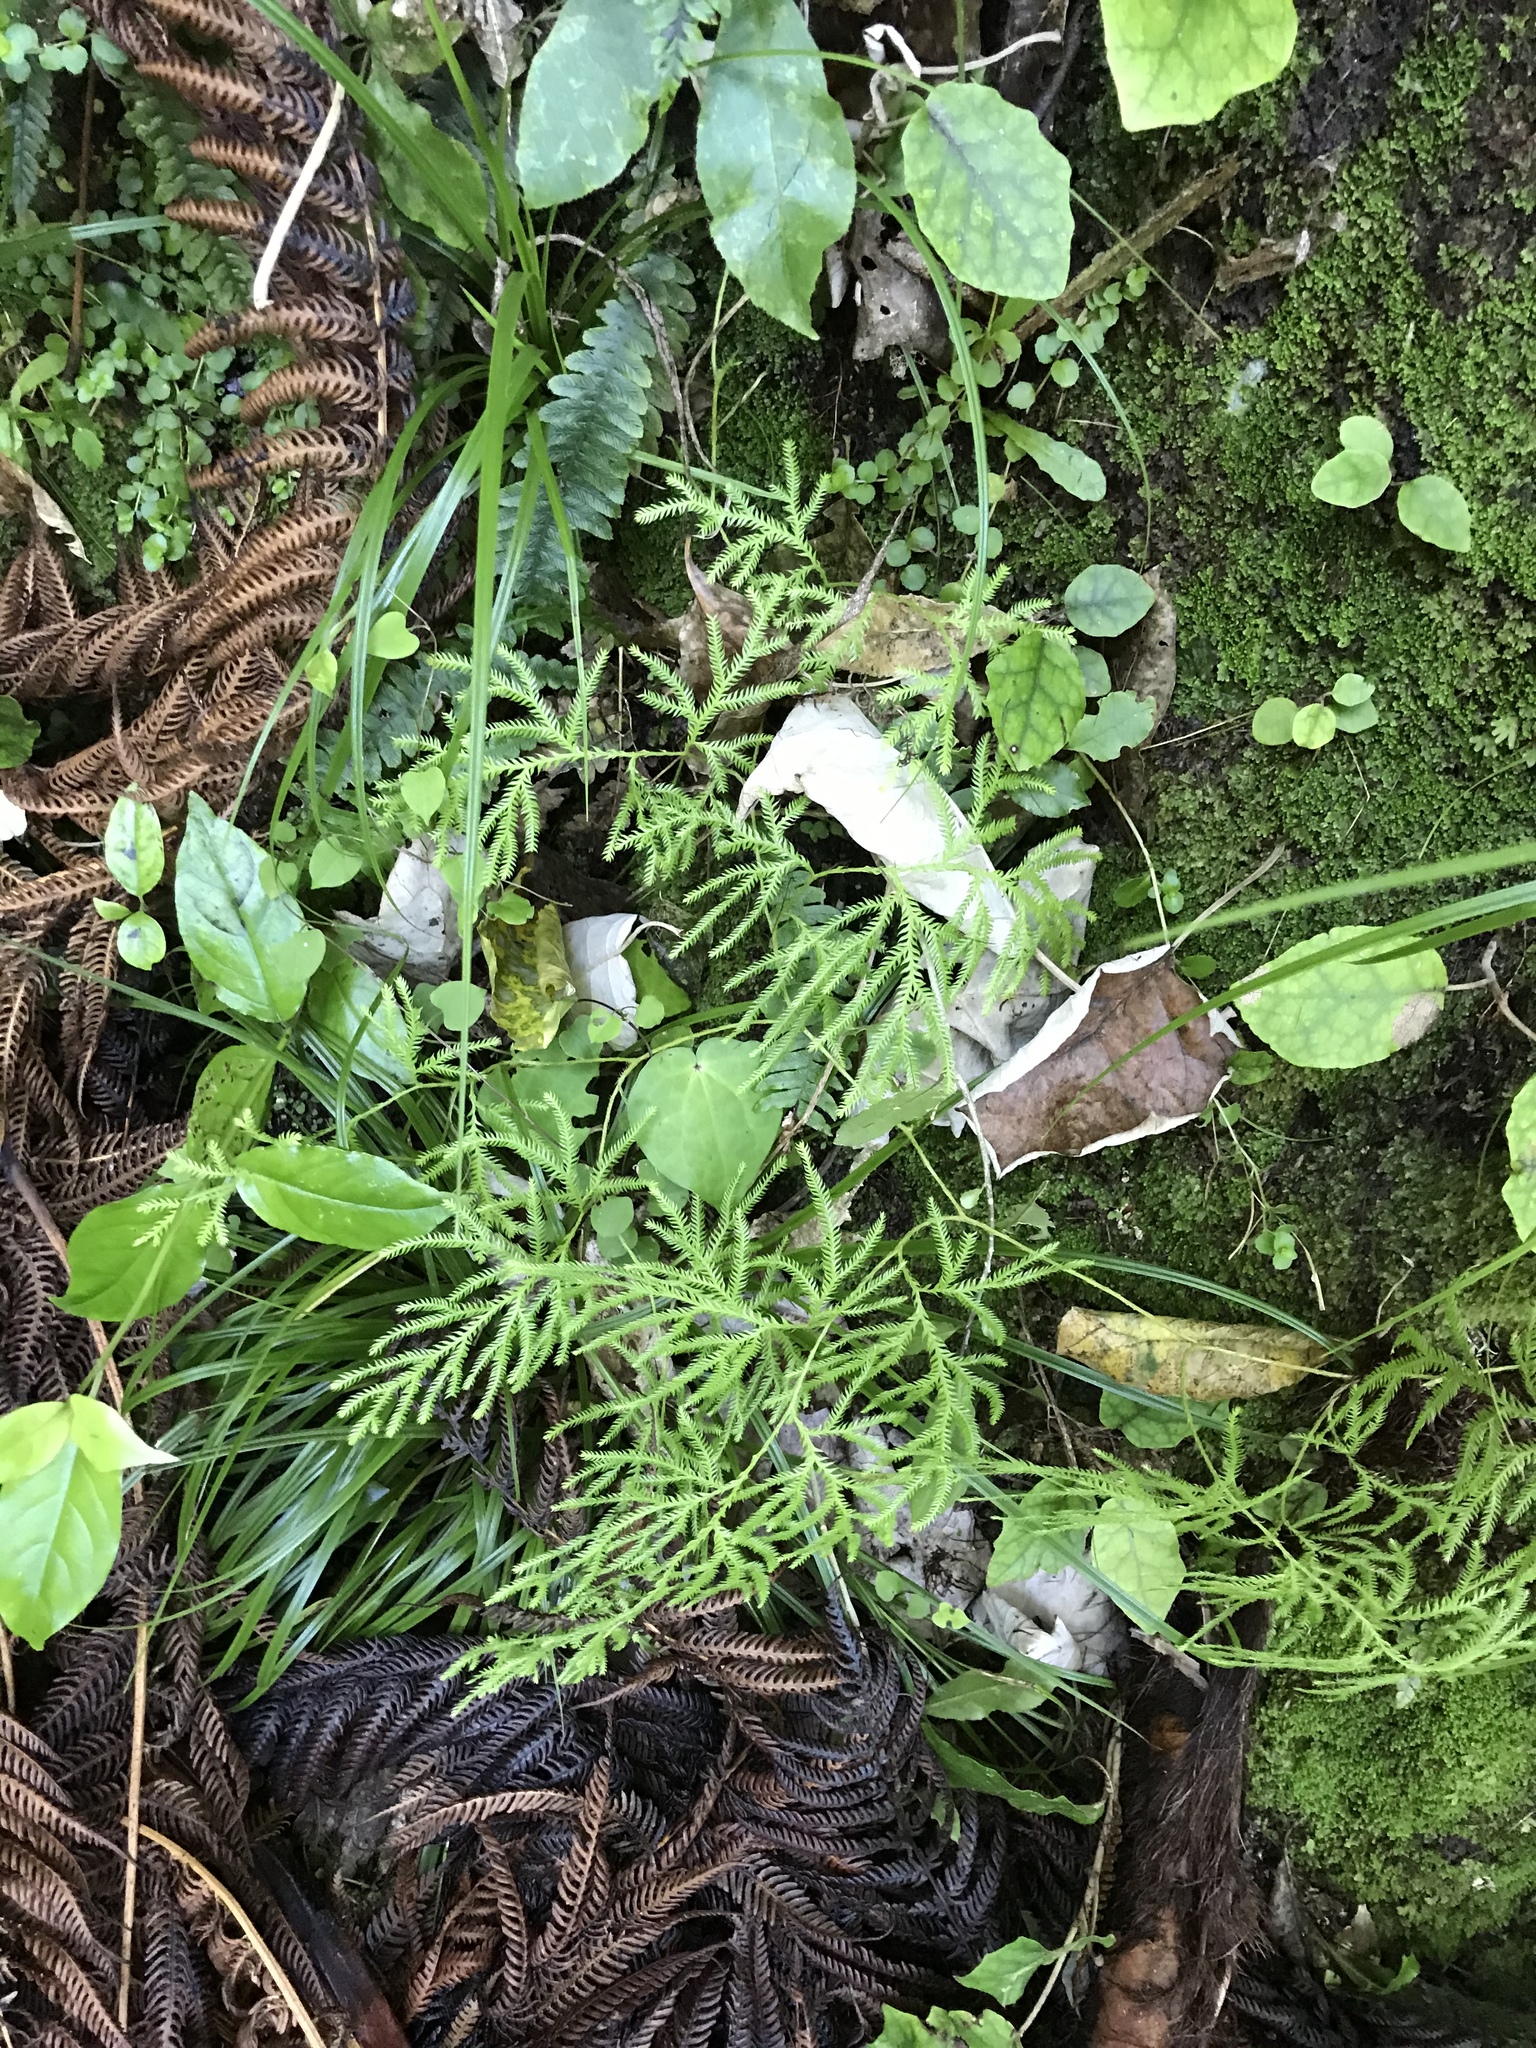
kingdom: Plantae
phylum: Tracheophyta
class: Lycopodiopsida
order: Lycopodiales
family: Lycopodiaceae
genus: Lycopodium
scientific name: Lycopodium volubile
